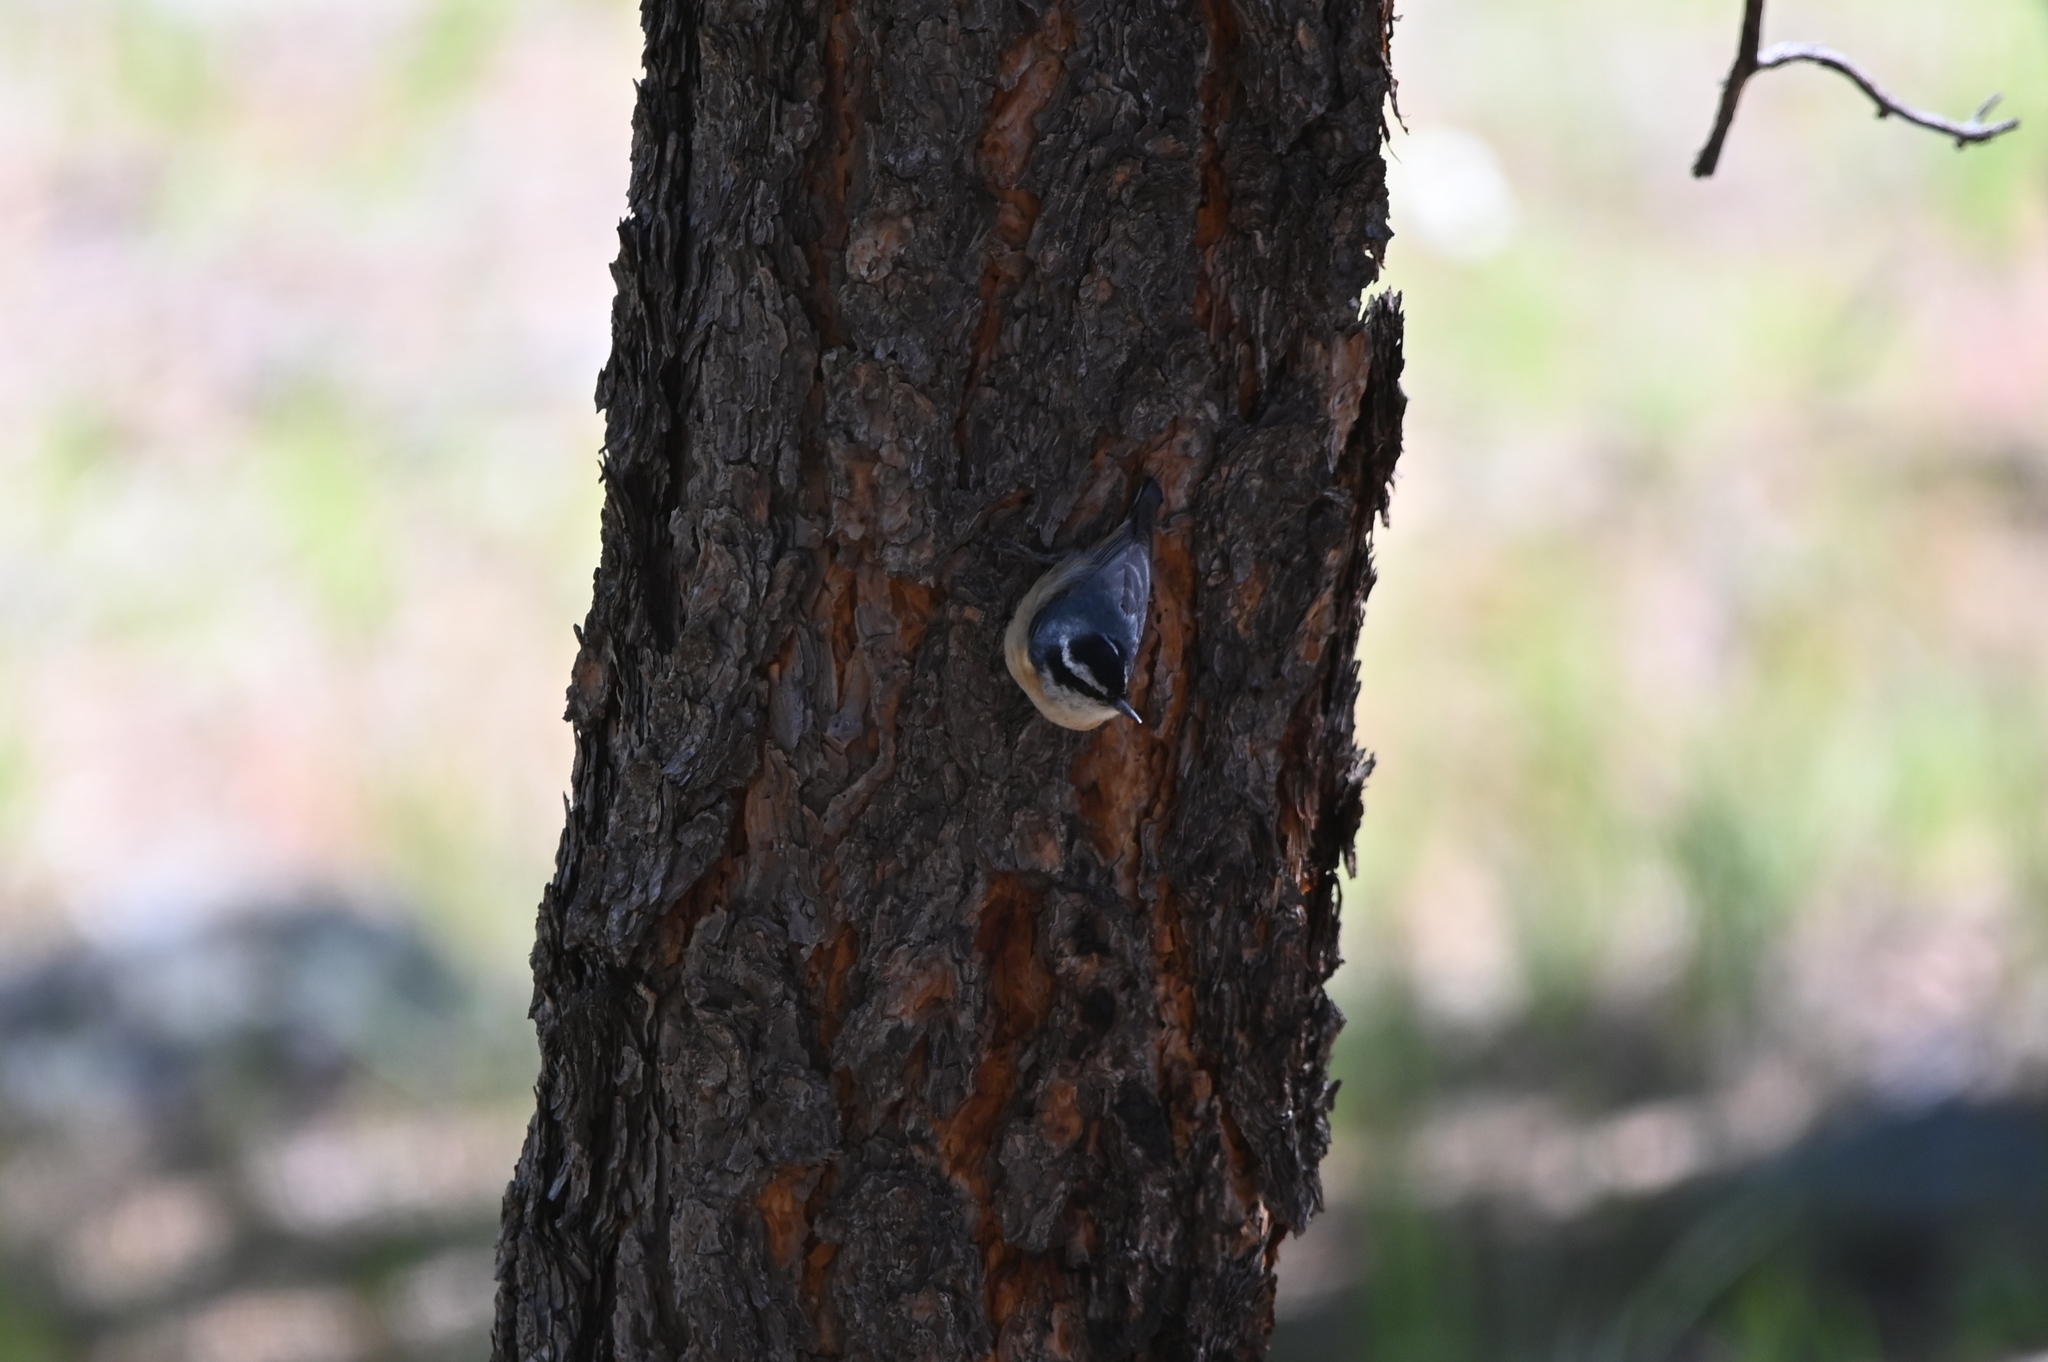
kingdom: Animalia
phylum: Chordata
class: Aves
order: Passeriformes
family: Sittidae
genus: Sitta
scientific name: Sitta canadensis
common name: Red-breasted nuthatch
